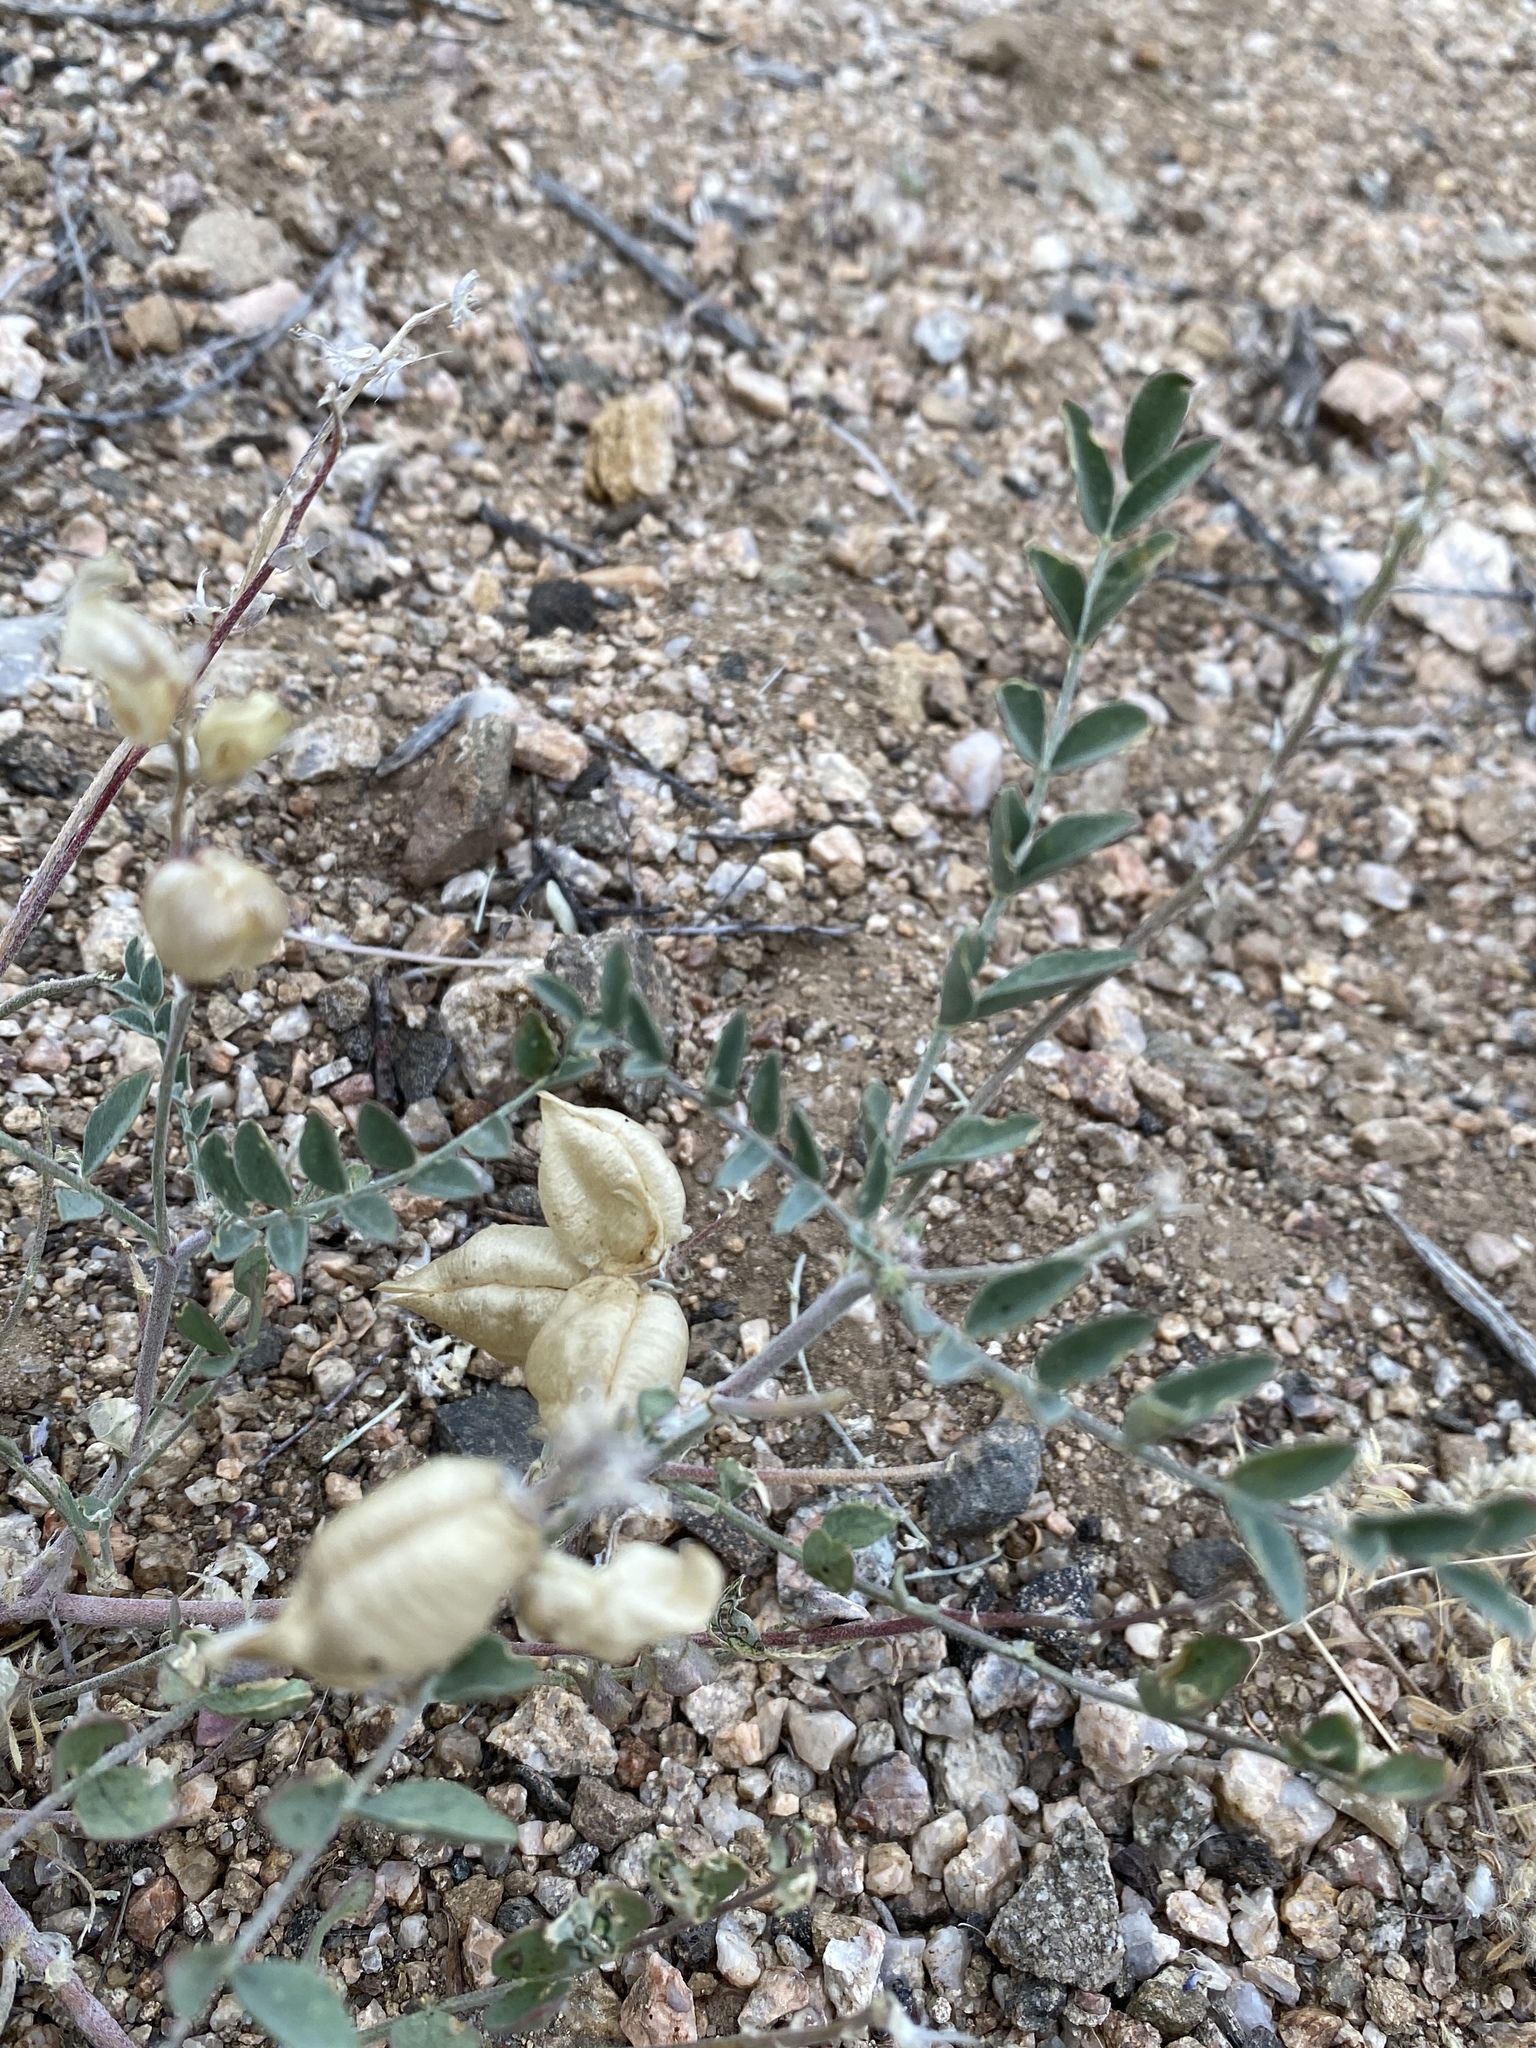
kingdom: Plantae
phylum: Tracheophyta
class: Magnoliopsida
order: Fabales
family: Fabaceae
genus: Astragalus
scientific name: Astragalus lentiginosus
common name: Freckled milkvetch
